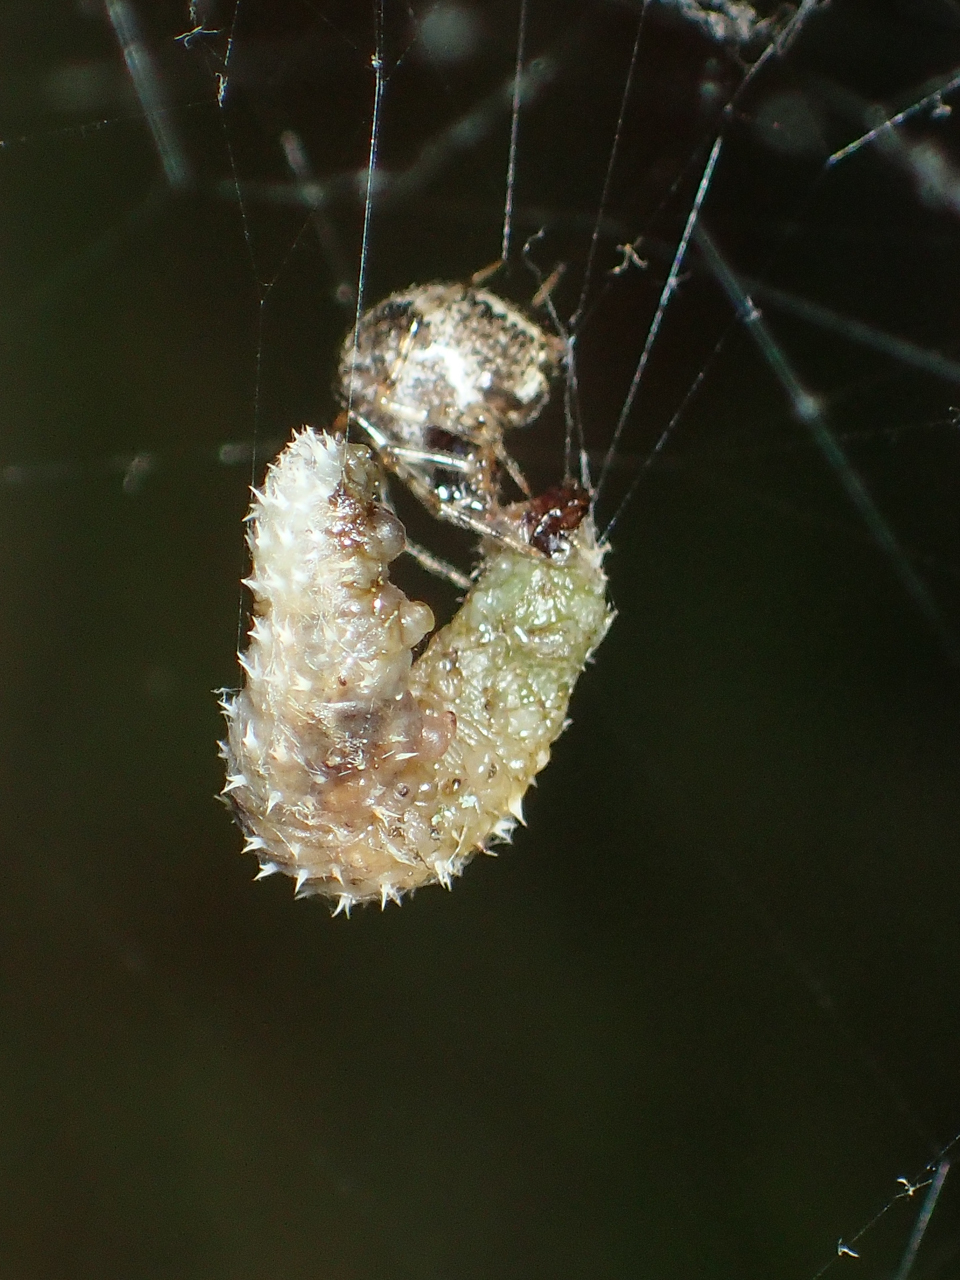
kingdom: Animalia
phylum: Arthropoda
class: Arachnida
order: Araneae
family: Theridiidae
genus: Parasteatoda
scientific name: Parasteatoda tepidariorum
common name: Common house spider
